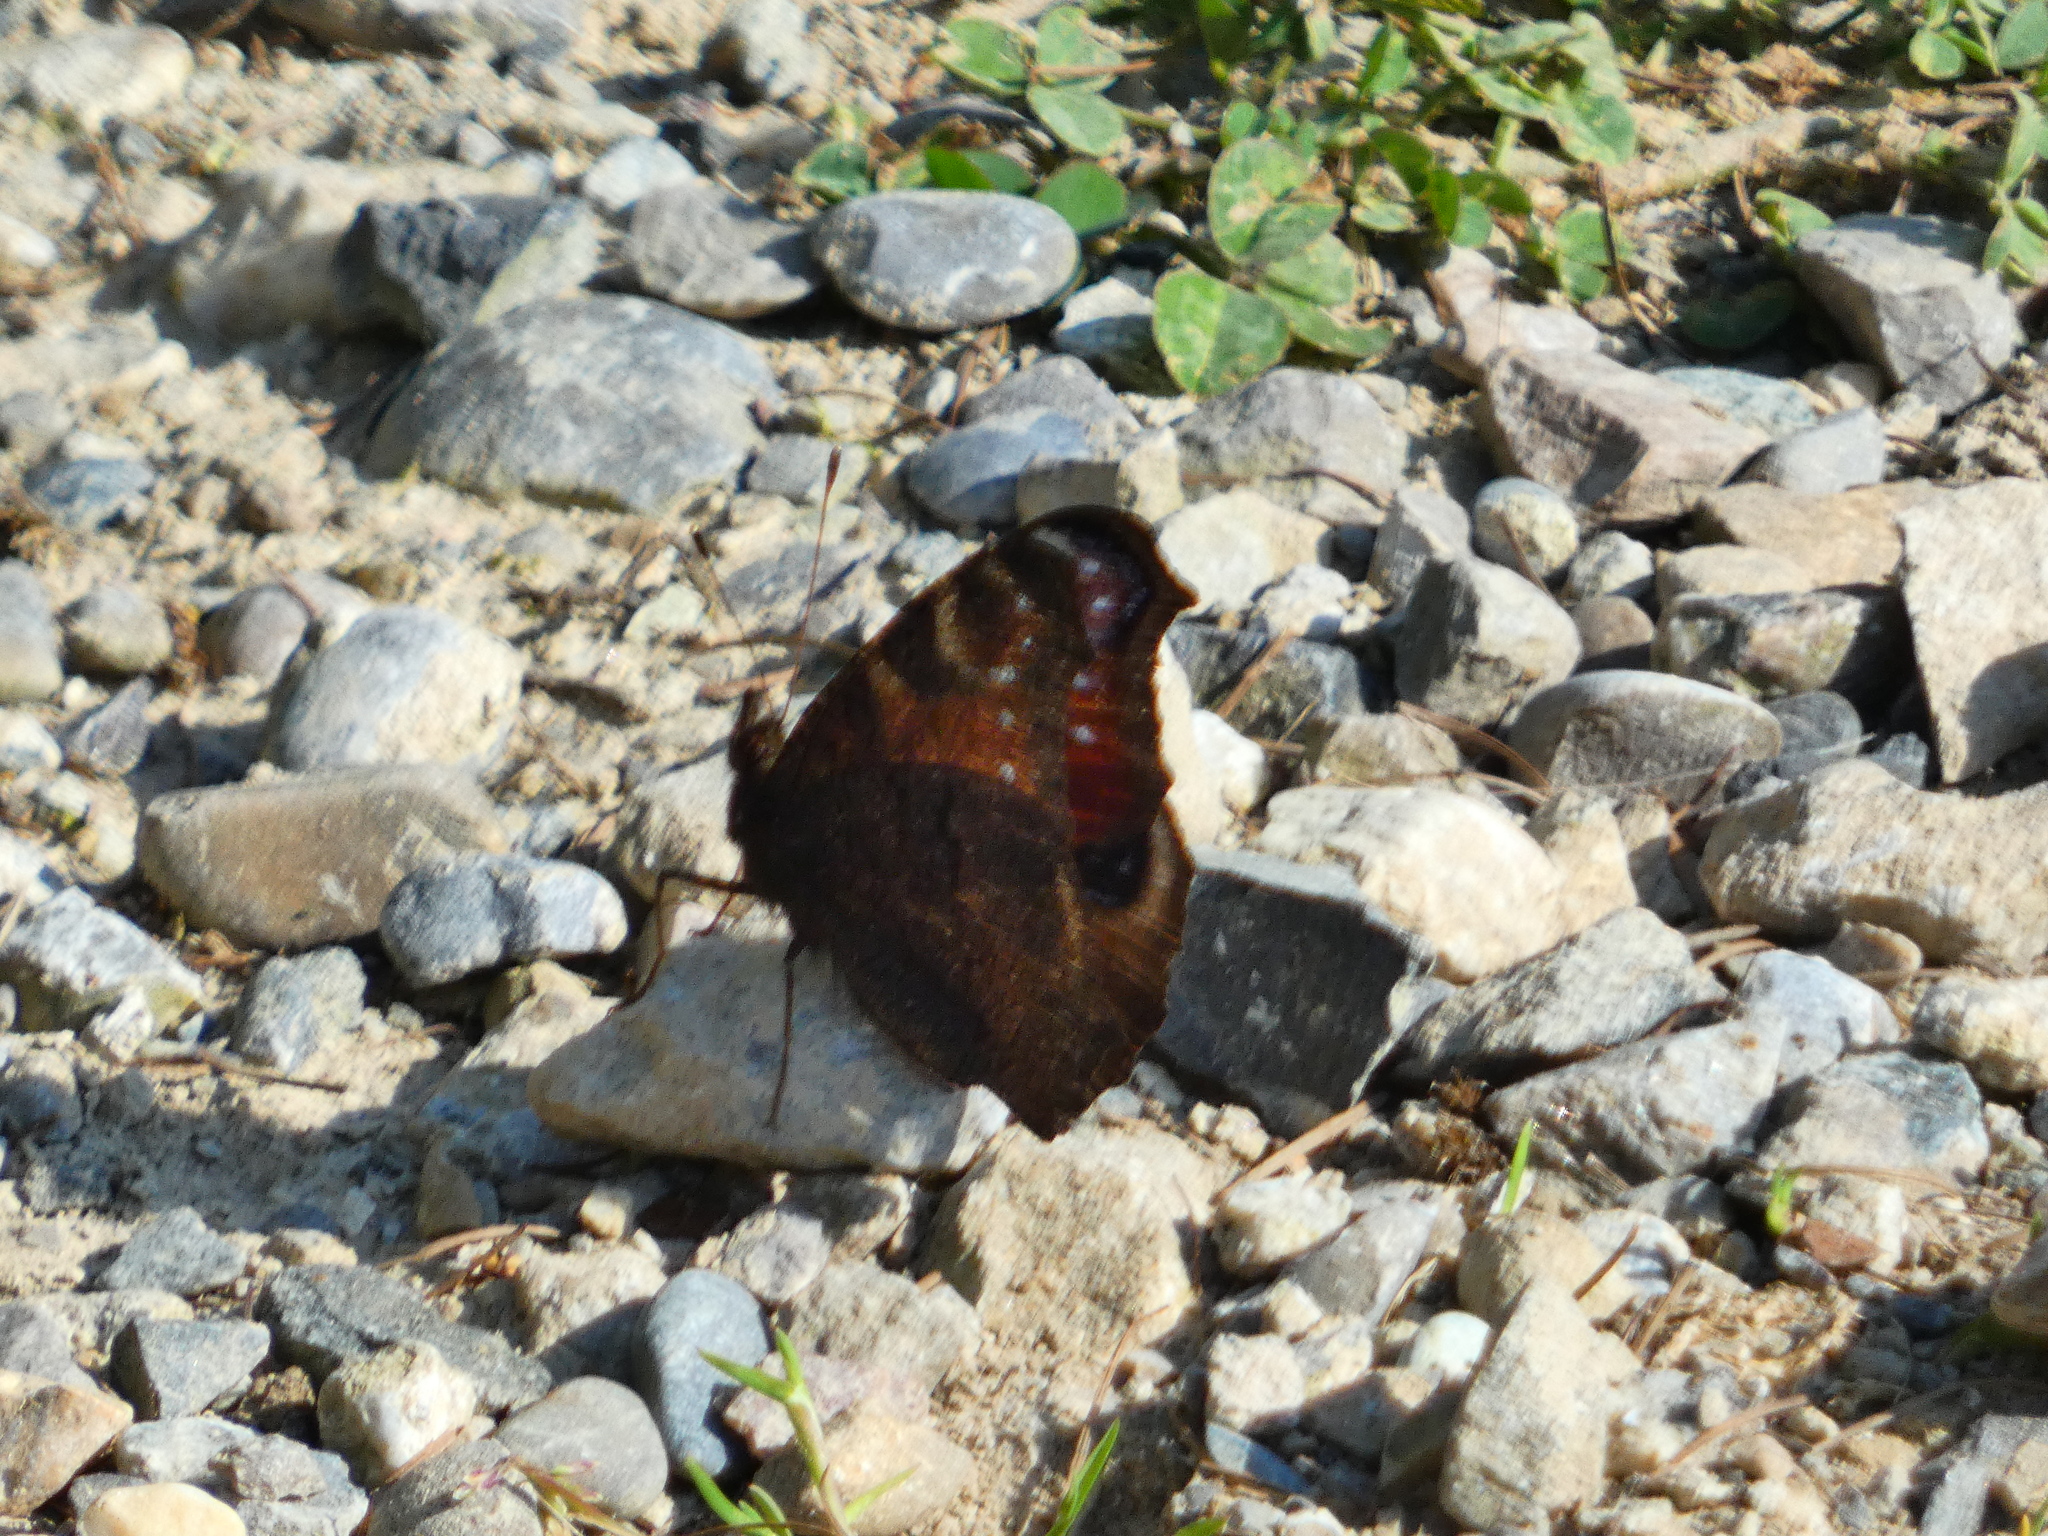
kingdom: Animalia
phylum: Arthropoda
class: Insecta
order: Lepidoptera
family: Nymphalidae
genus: Aglais
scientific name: Aglais io
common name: Peacock
